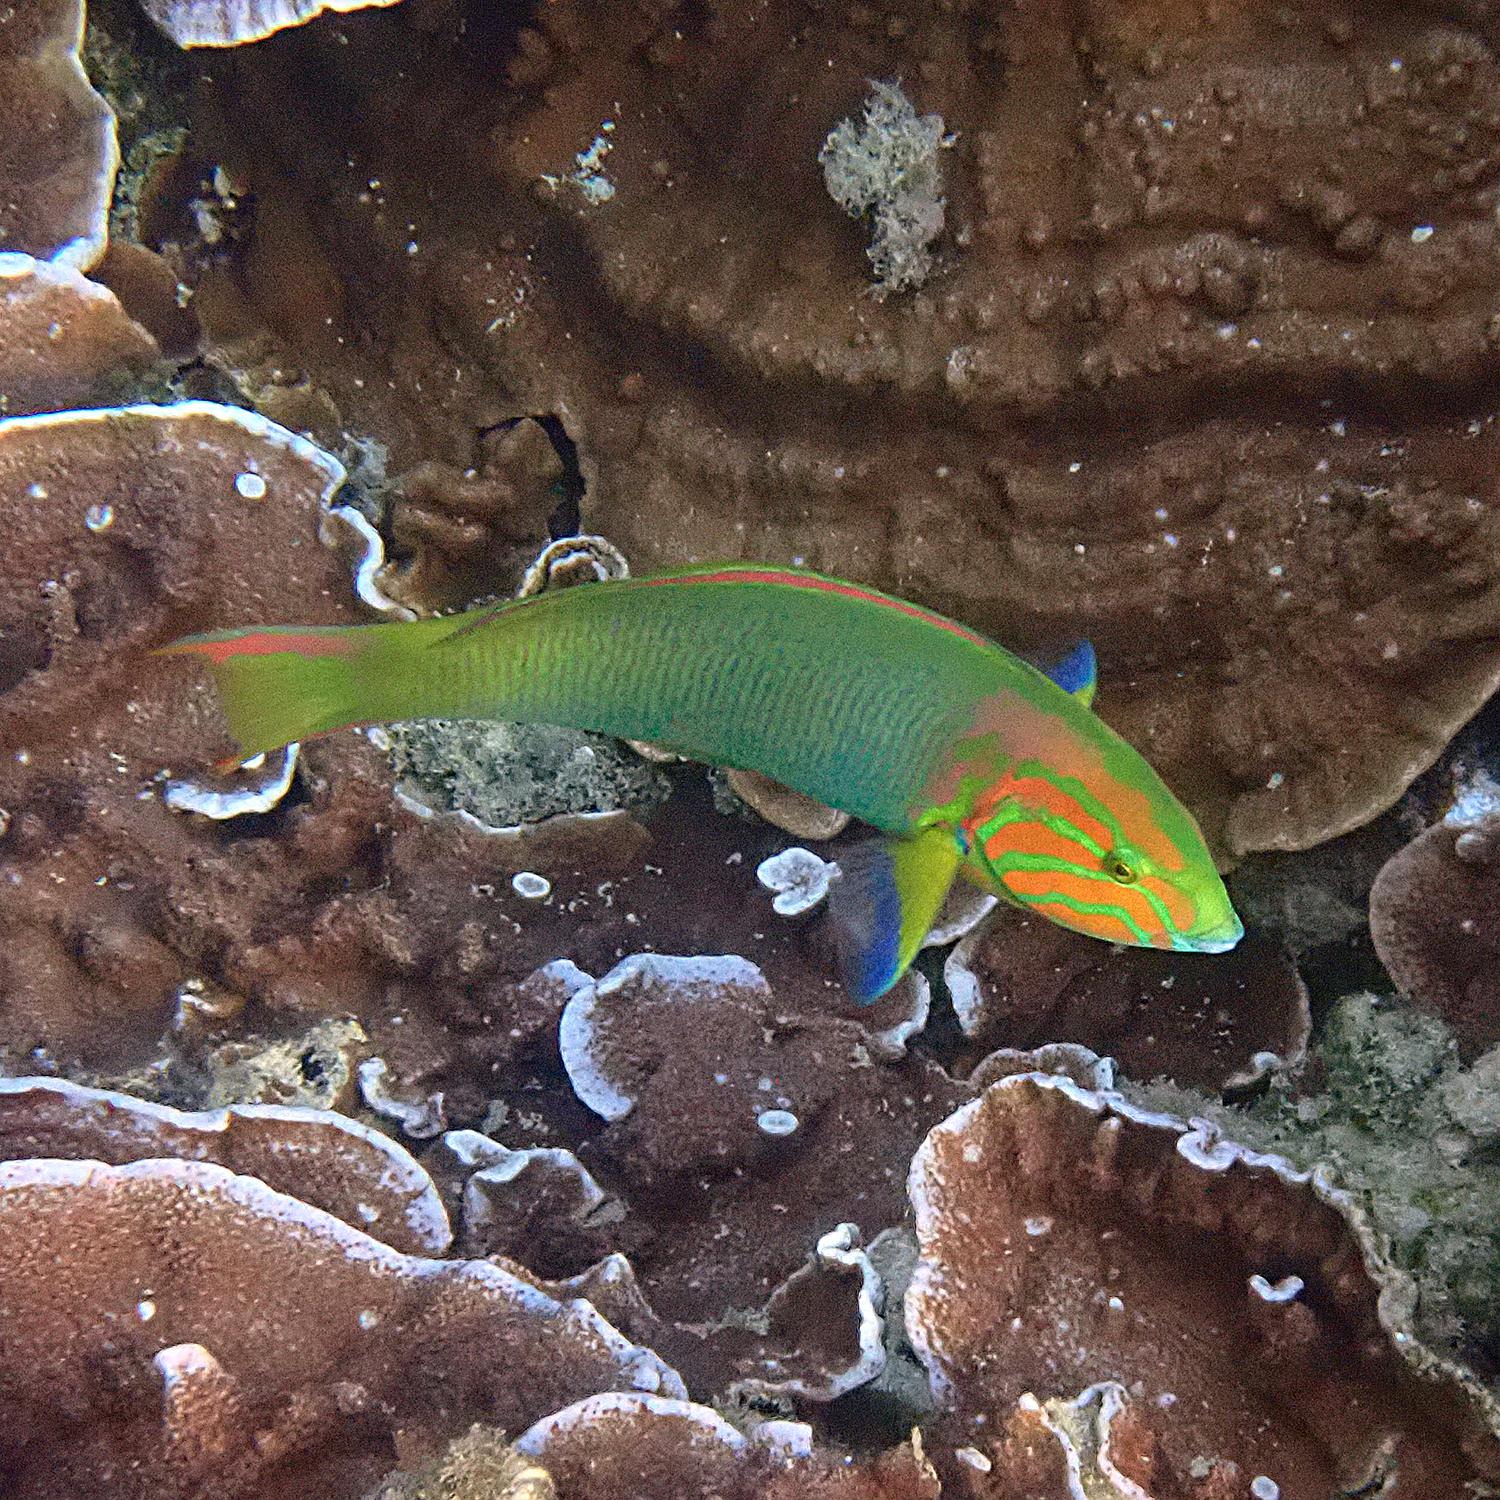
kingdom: Animalia
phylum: Chordata
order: Perciformes
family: Labridae
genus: Thalassoma
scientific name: Thalassoma lutescens
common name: Green moon wrasse
